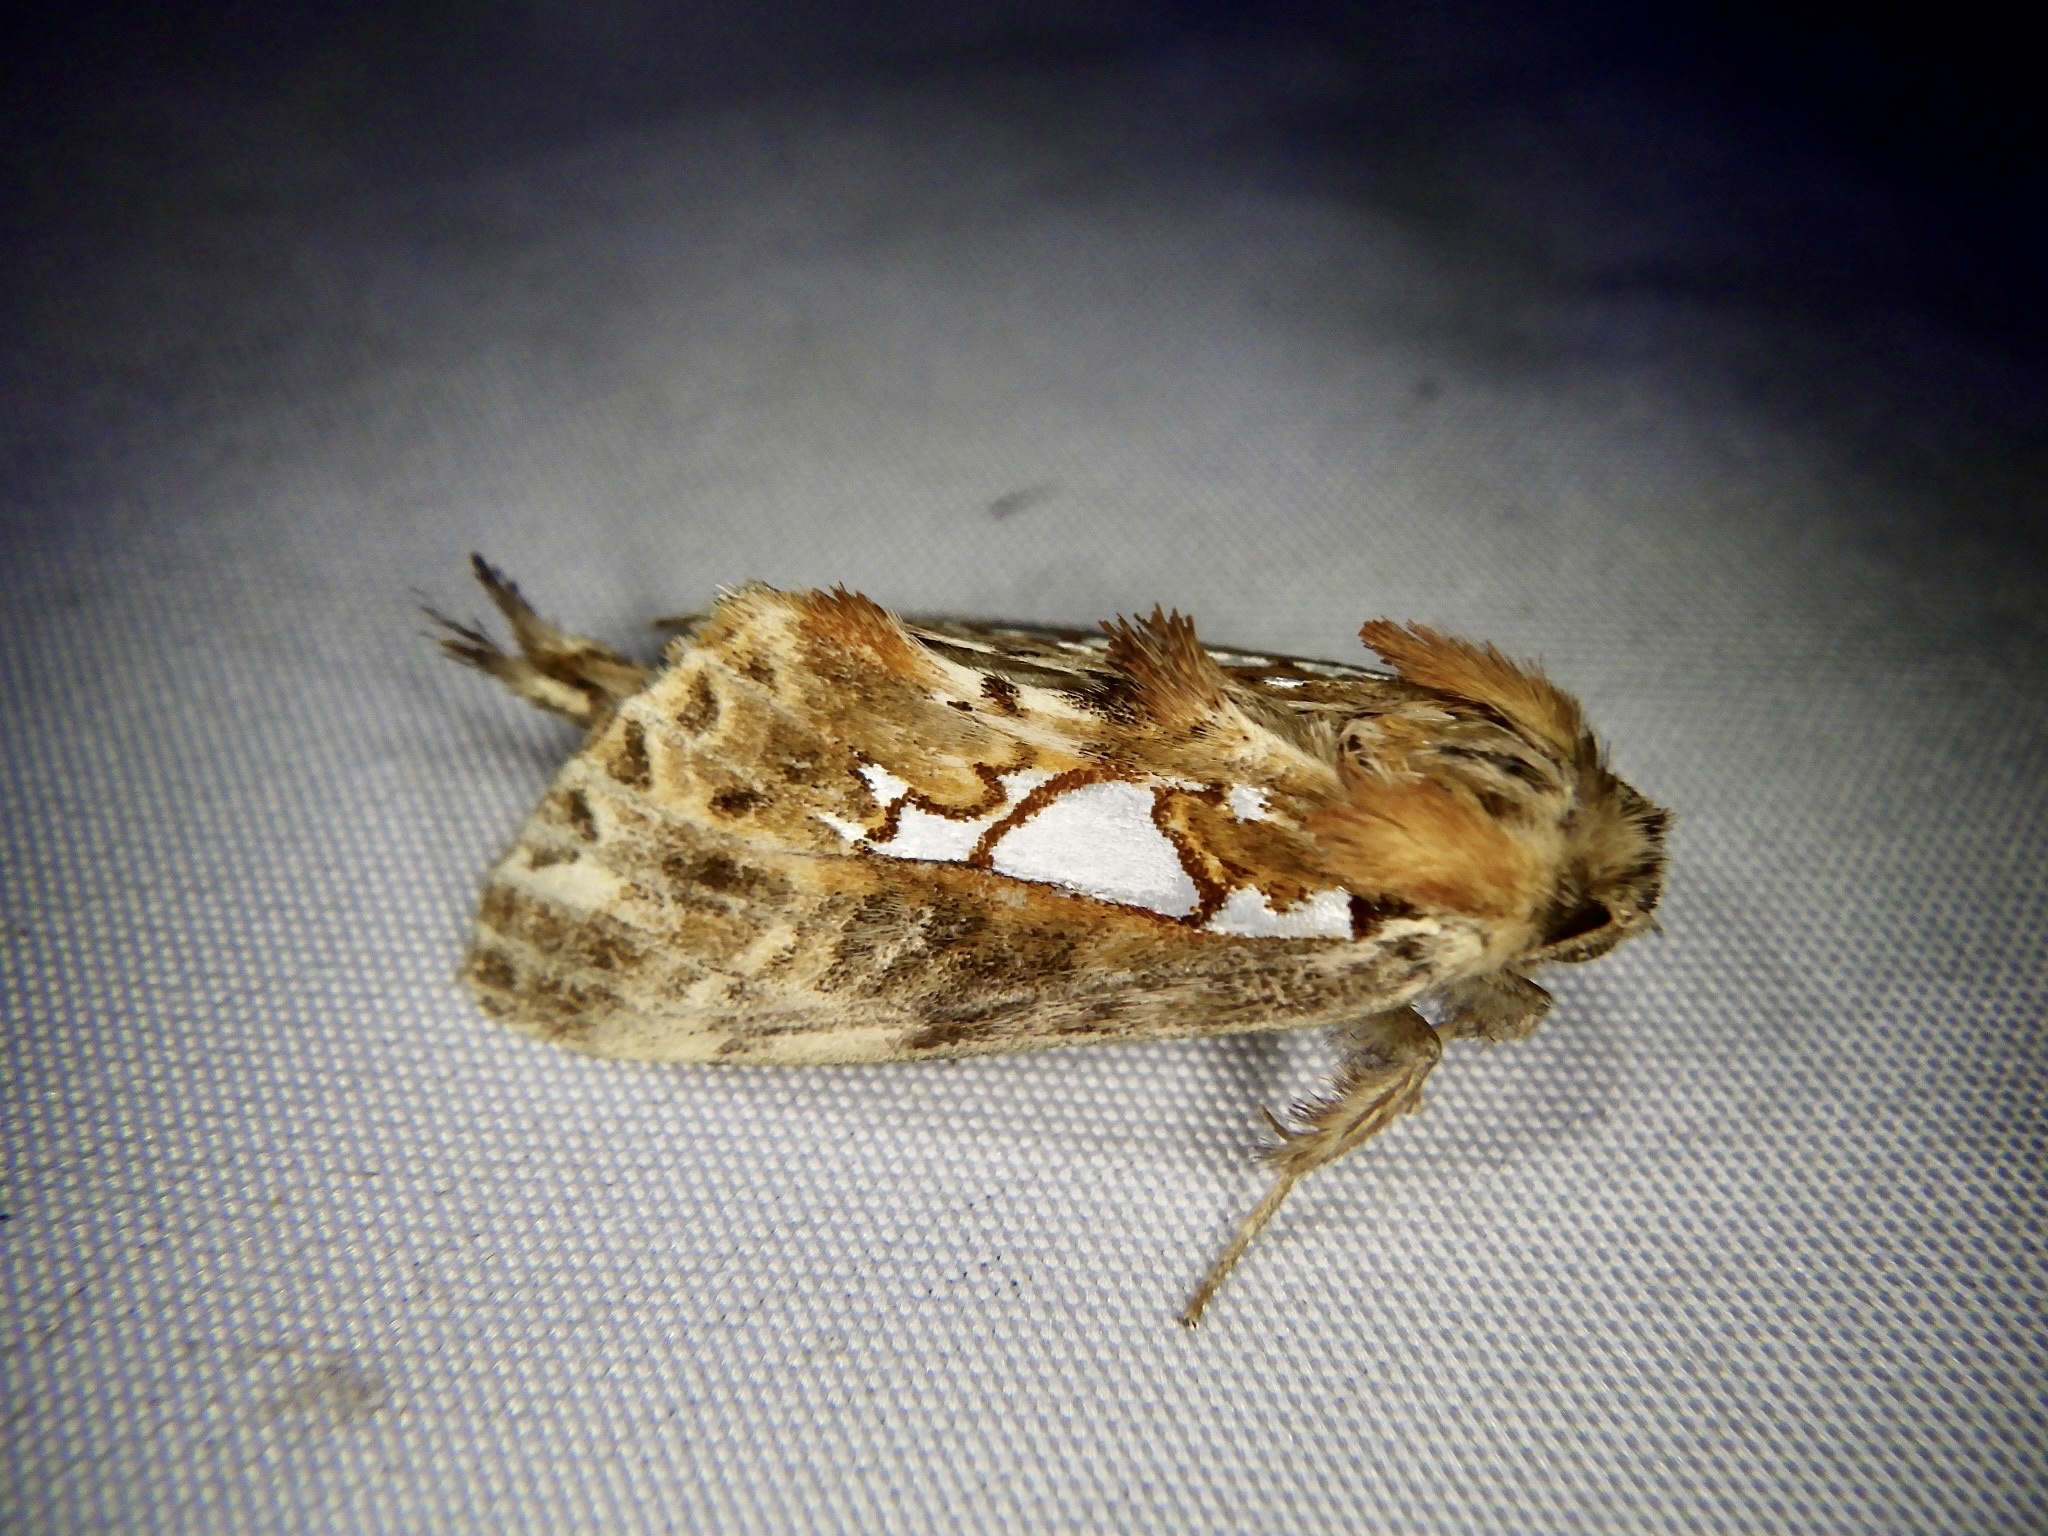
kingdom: Animalia
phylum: Arthropoda
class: Insecta
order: Lepidoptera
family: Notodontidae
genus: Spatalia
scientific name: Spatalia doerriesi
